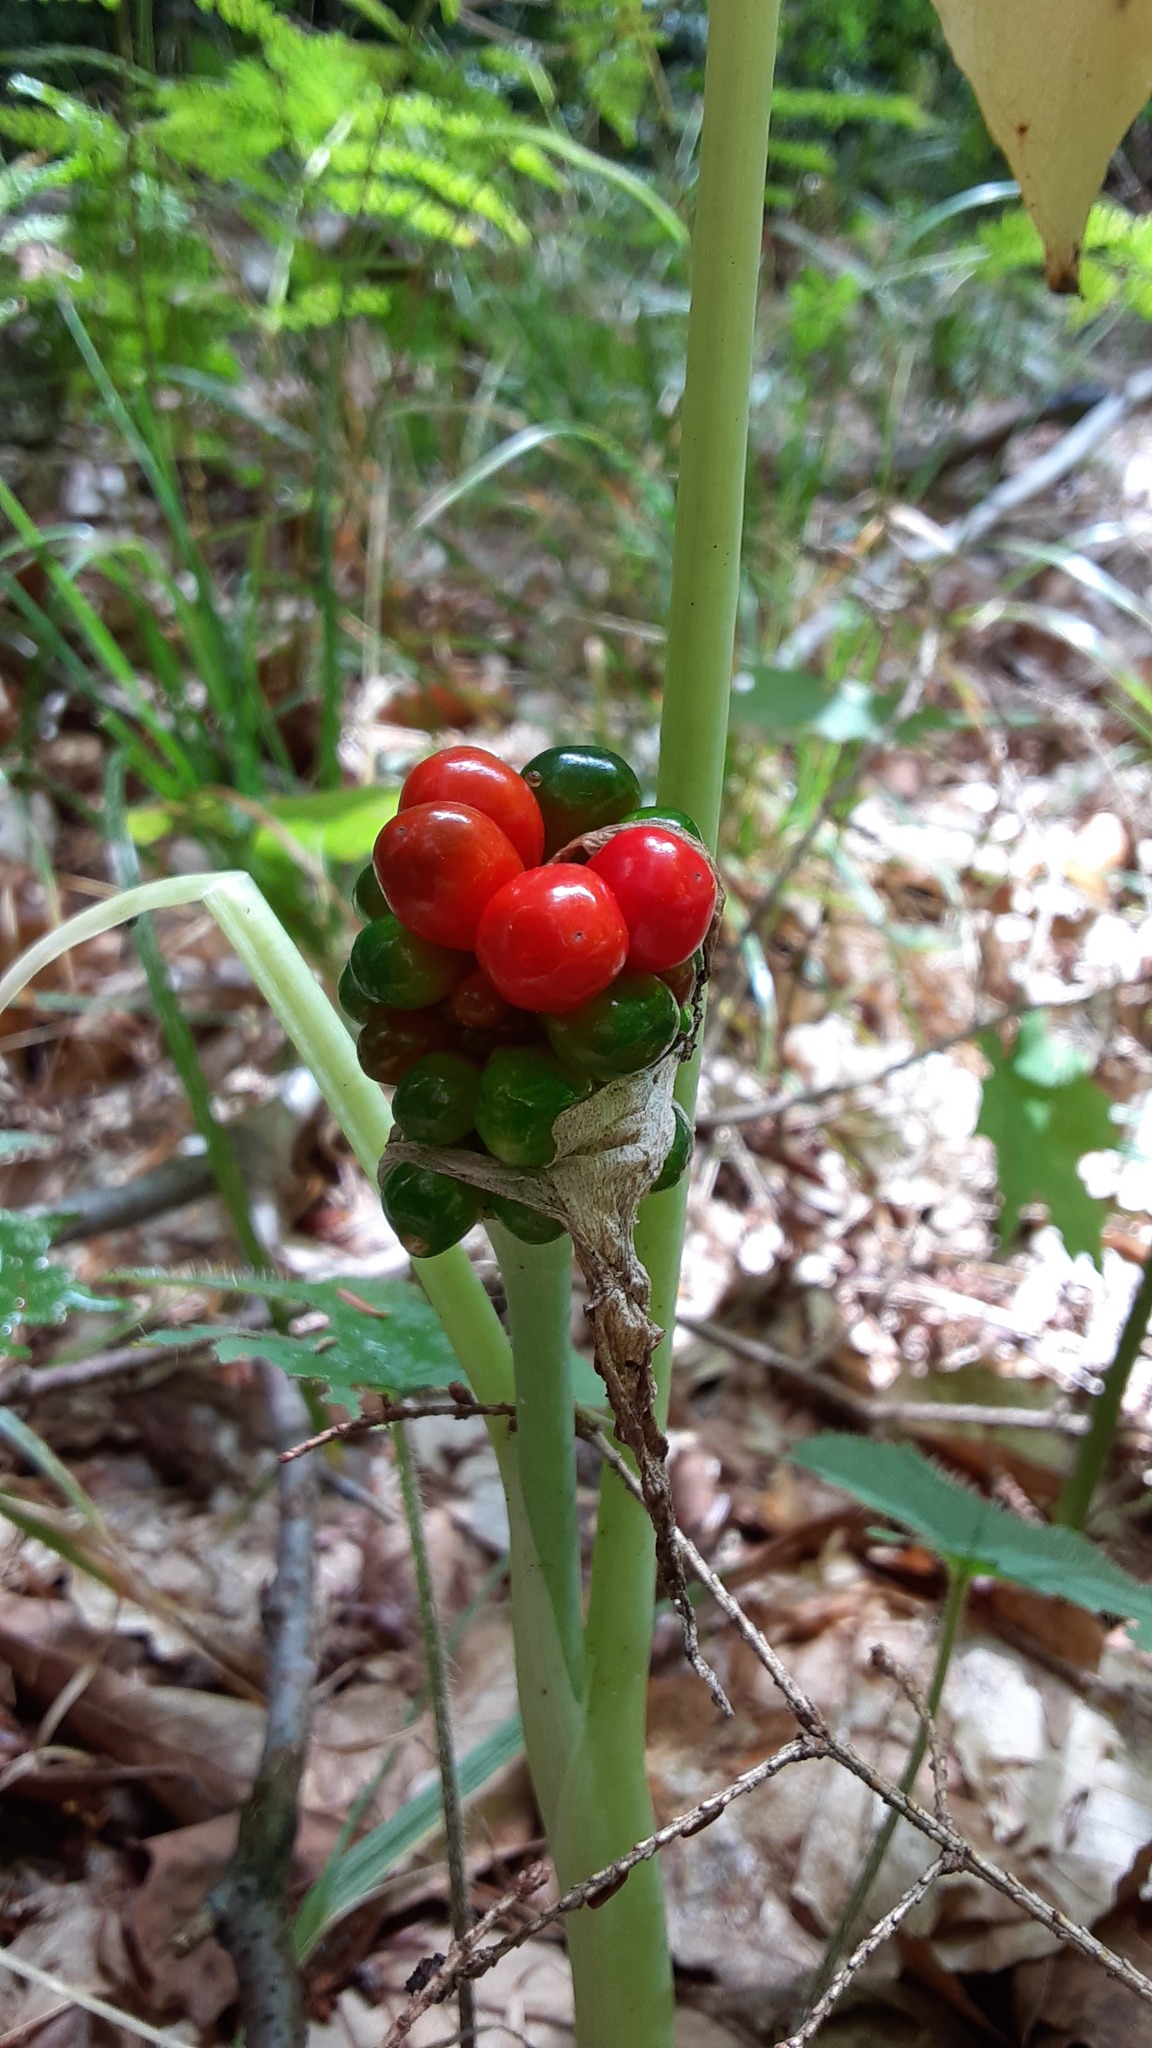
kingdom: Plantae
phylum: Tracheophyta
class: Liliopsida
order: Alismatales
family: Araceae
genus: Arisaema
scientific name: Arisaema triphyllum
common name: Jack-in-the-pulpit
